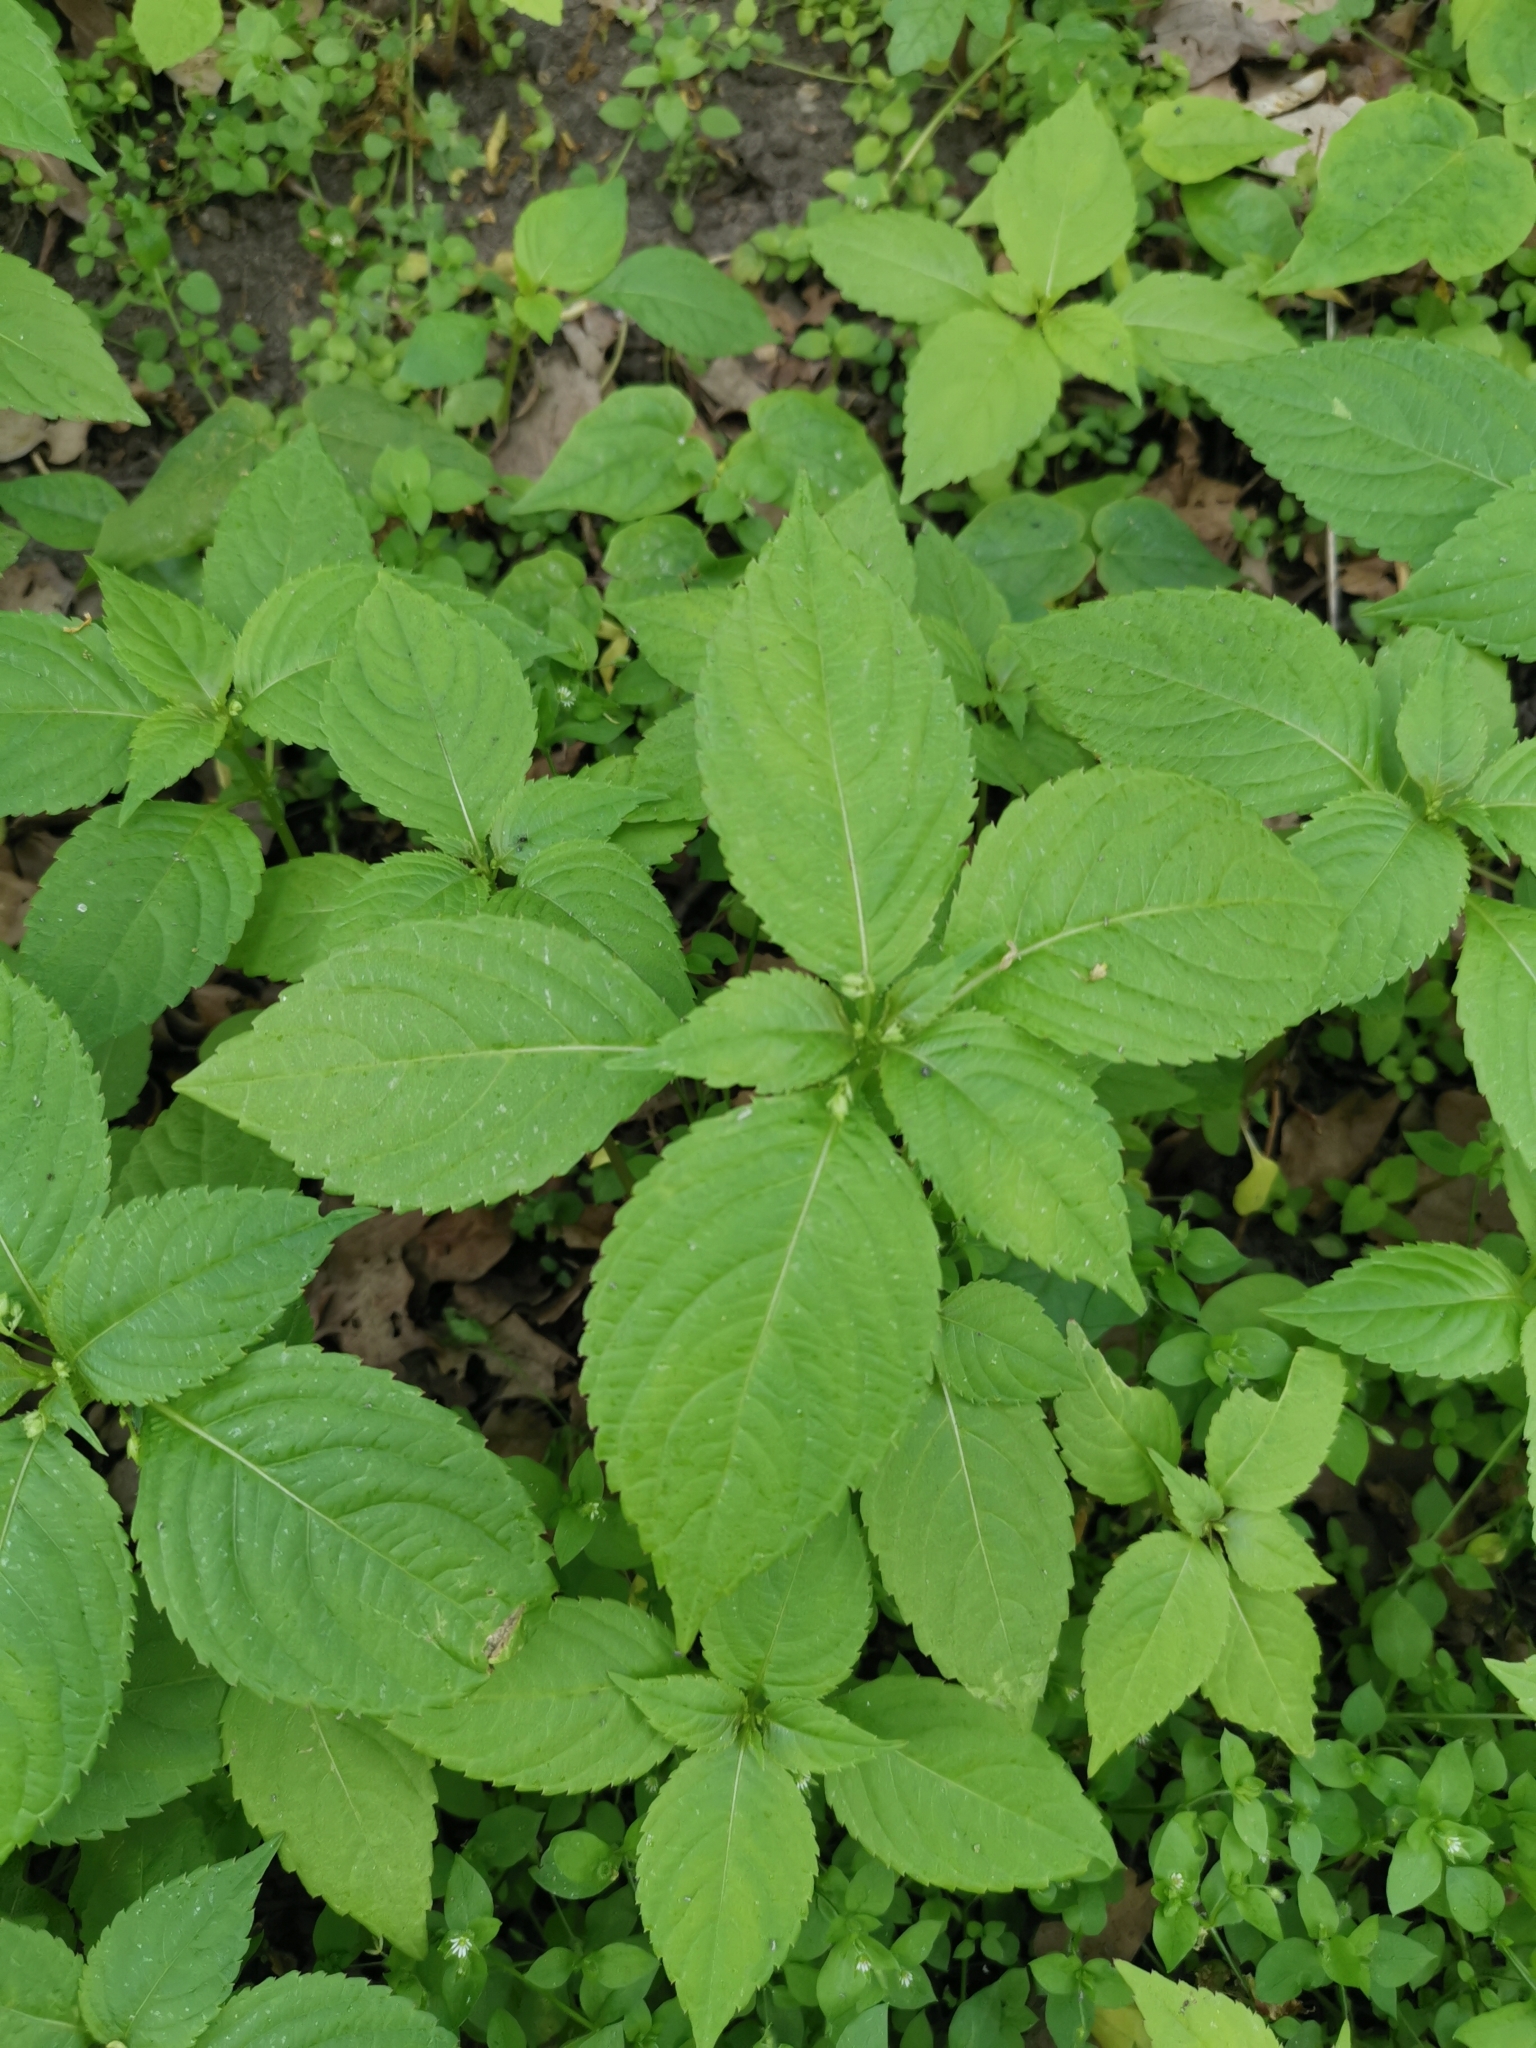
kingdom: Plantae
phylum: Tracheophyta
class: Magnoliopsida
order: Ericales
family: Balsaminaceae
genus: Impatiens
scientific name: Impatiens parviflora
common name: Small balsam
